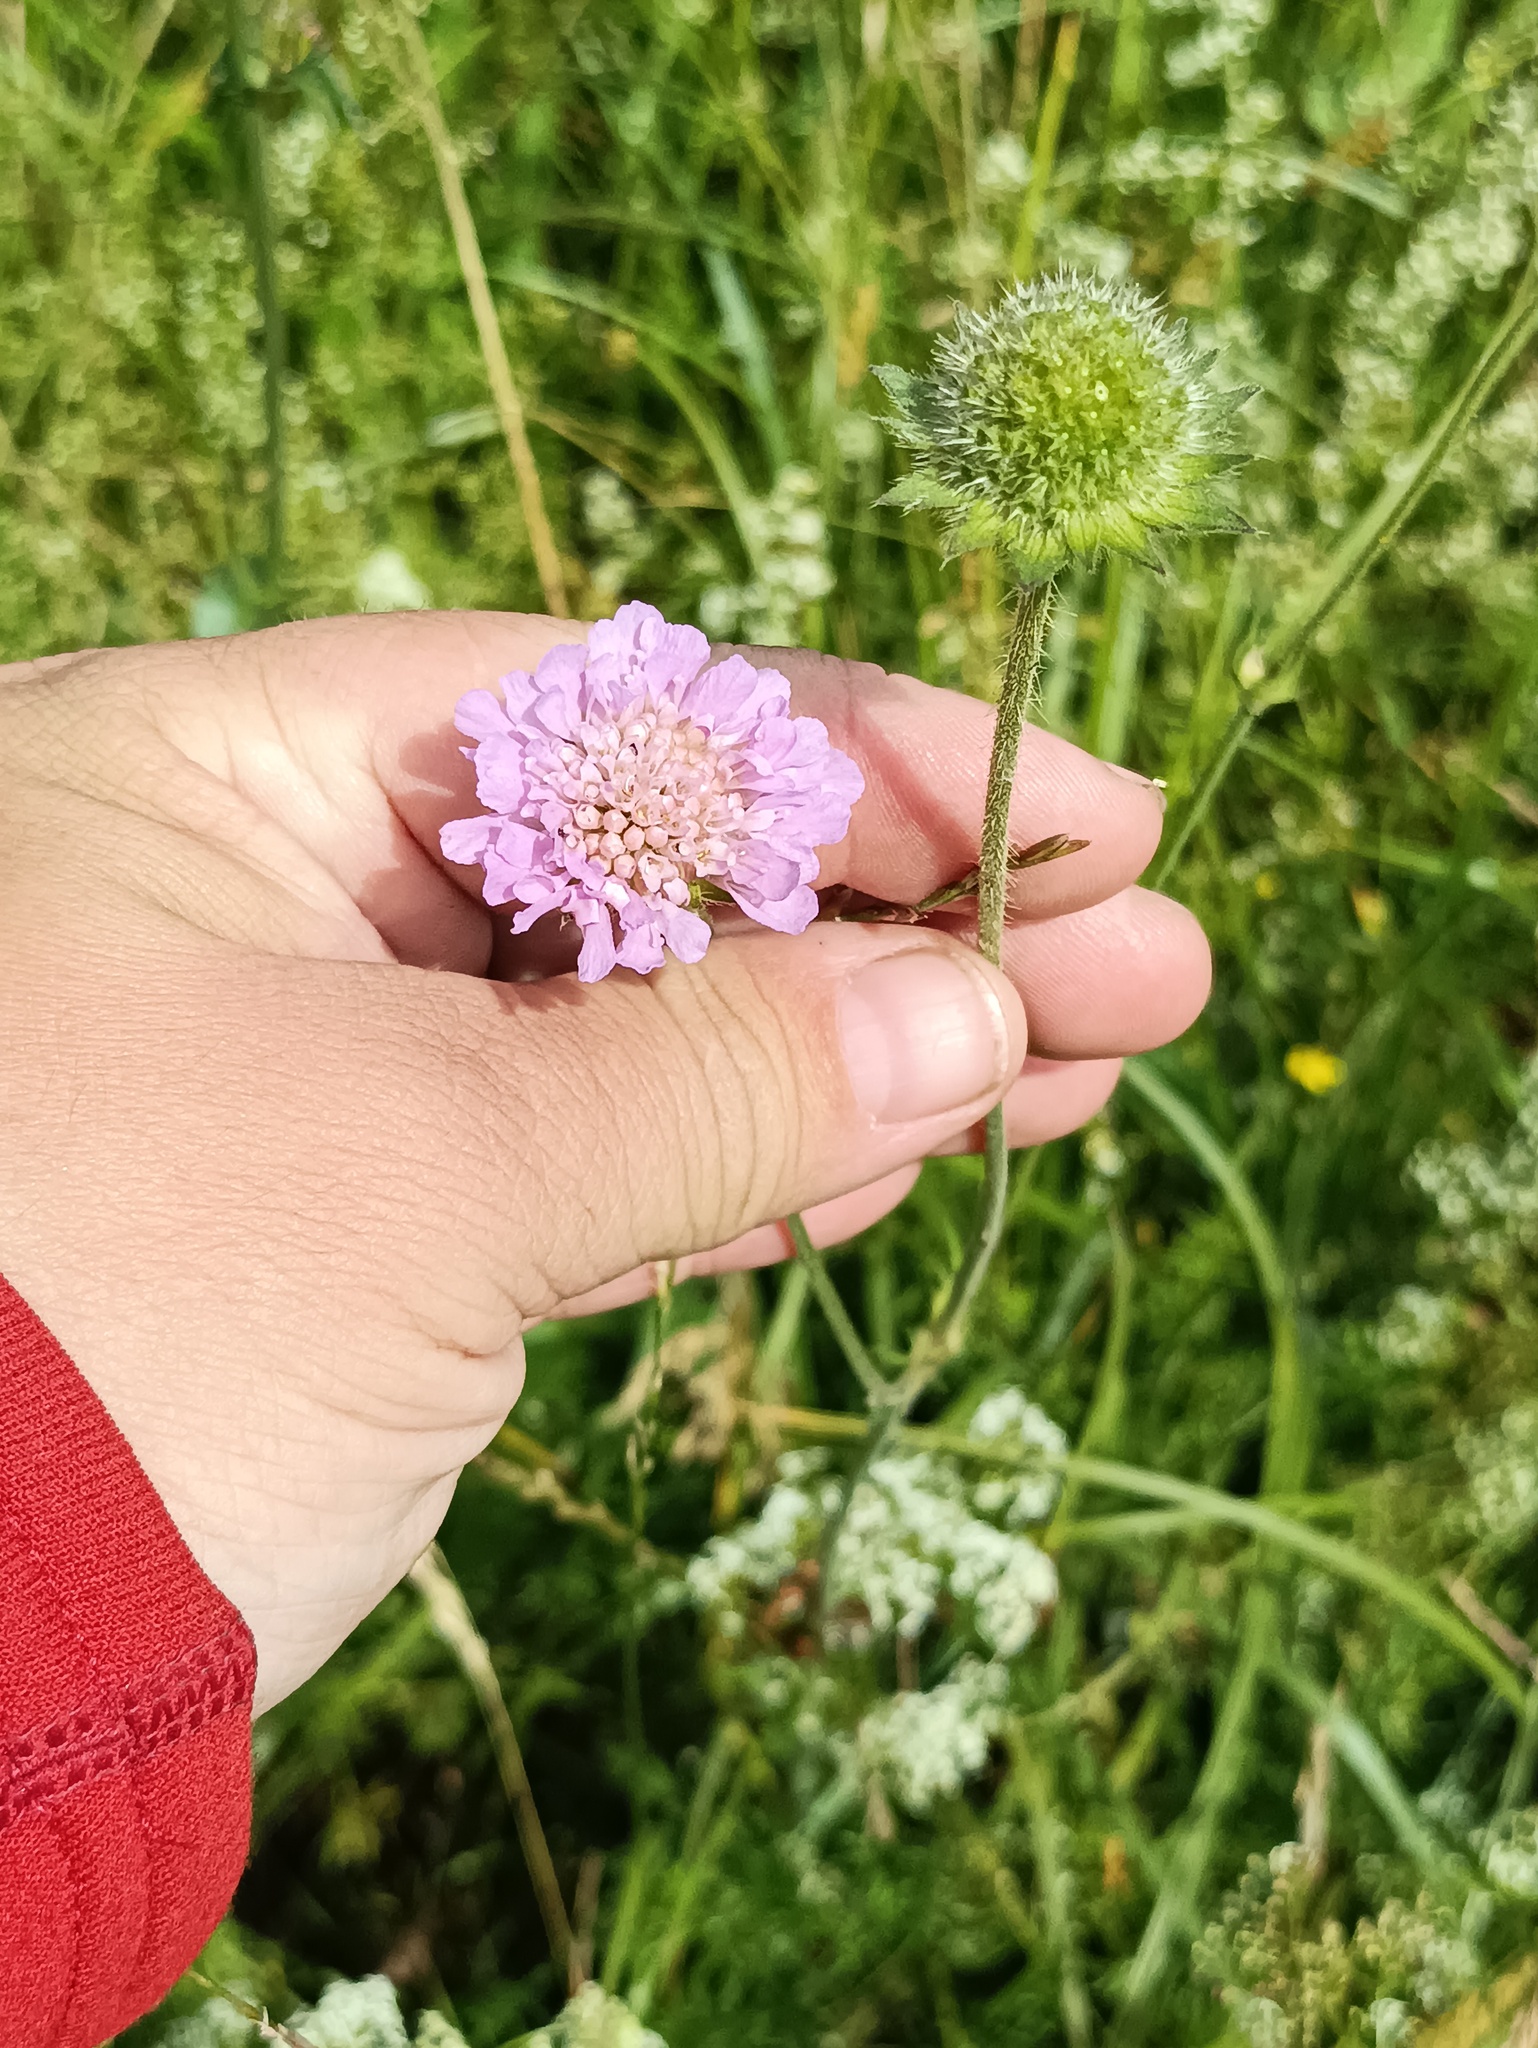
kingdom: Plantae
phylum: Tracheophyta
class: Magnoliopsida
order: Dipsacales
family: Caprifoliaceae
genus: Knautia
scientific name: Knautia arvensis
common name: Field scabiosa
